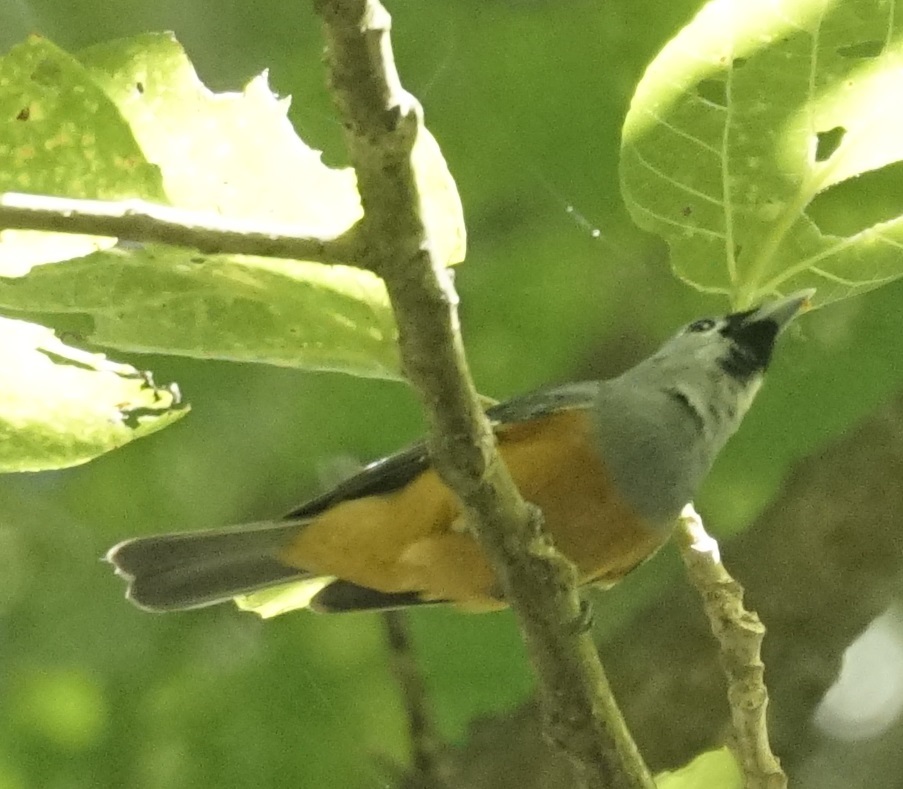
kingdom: Animalia
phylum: Chordata
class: Aves
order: Passeriformes
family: Monarchidae
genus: Monarcha
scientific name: Monarcha melanopsis
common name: Black-faced monarch
